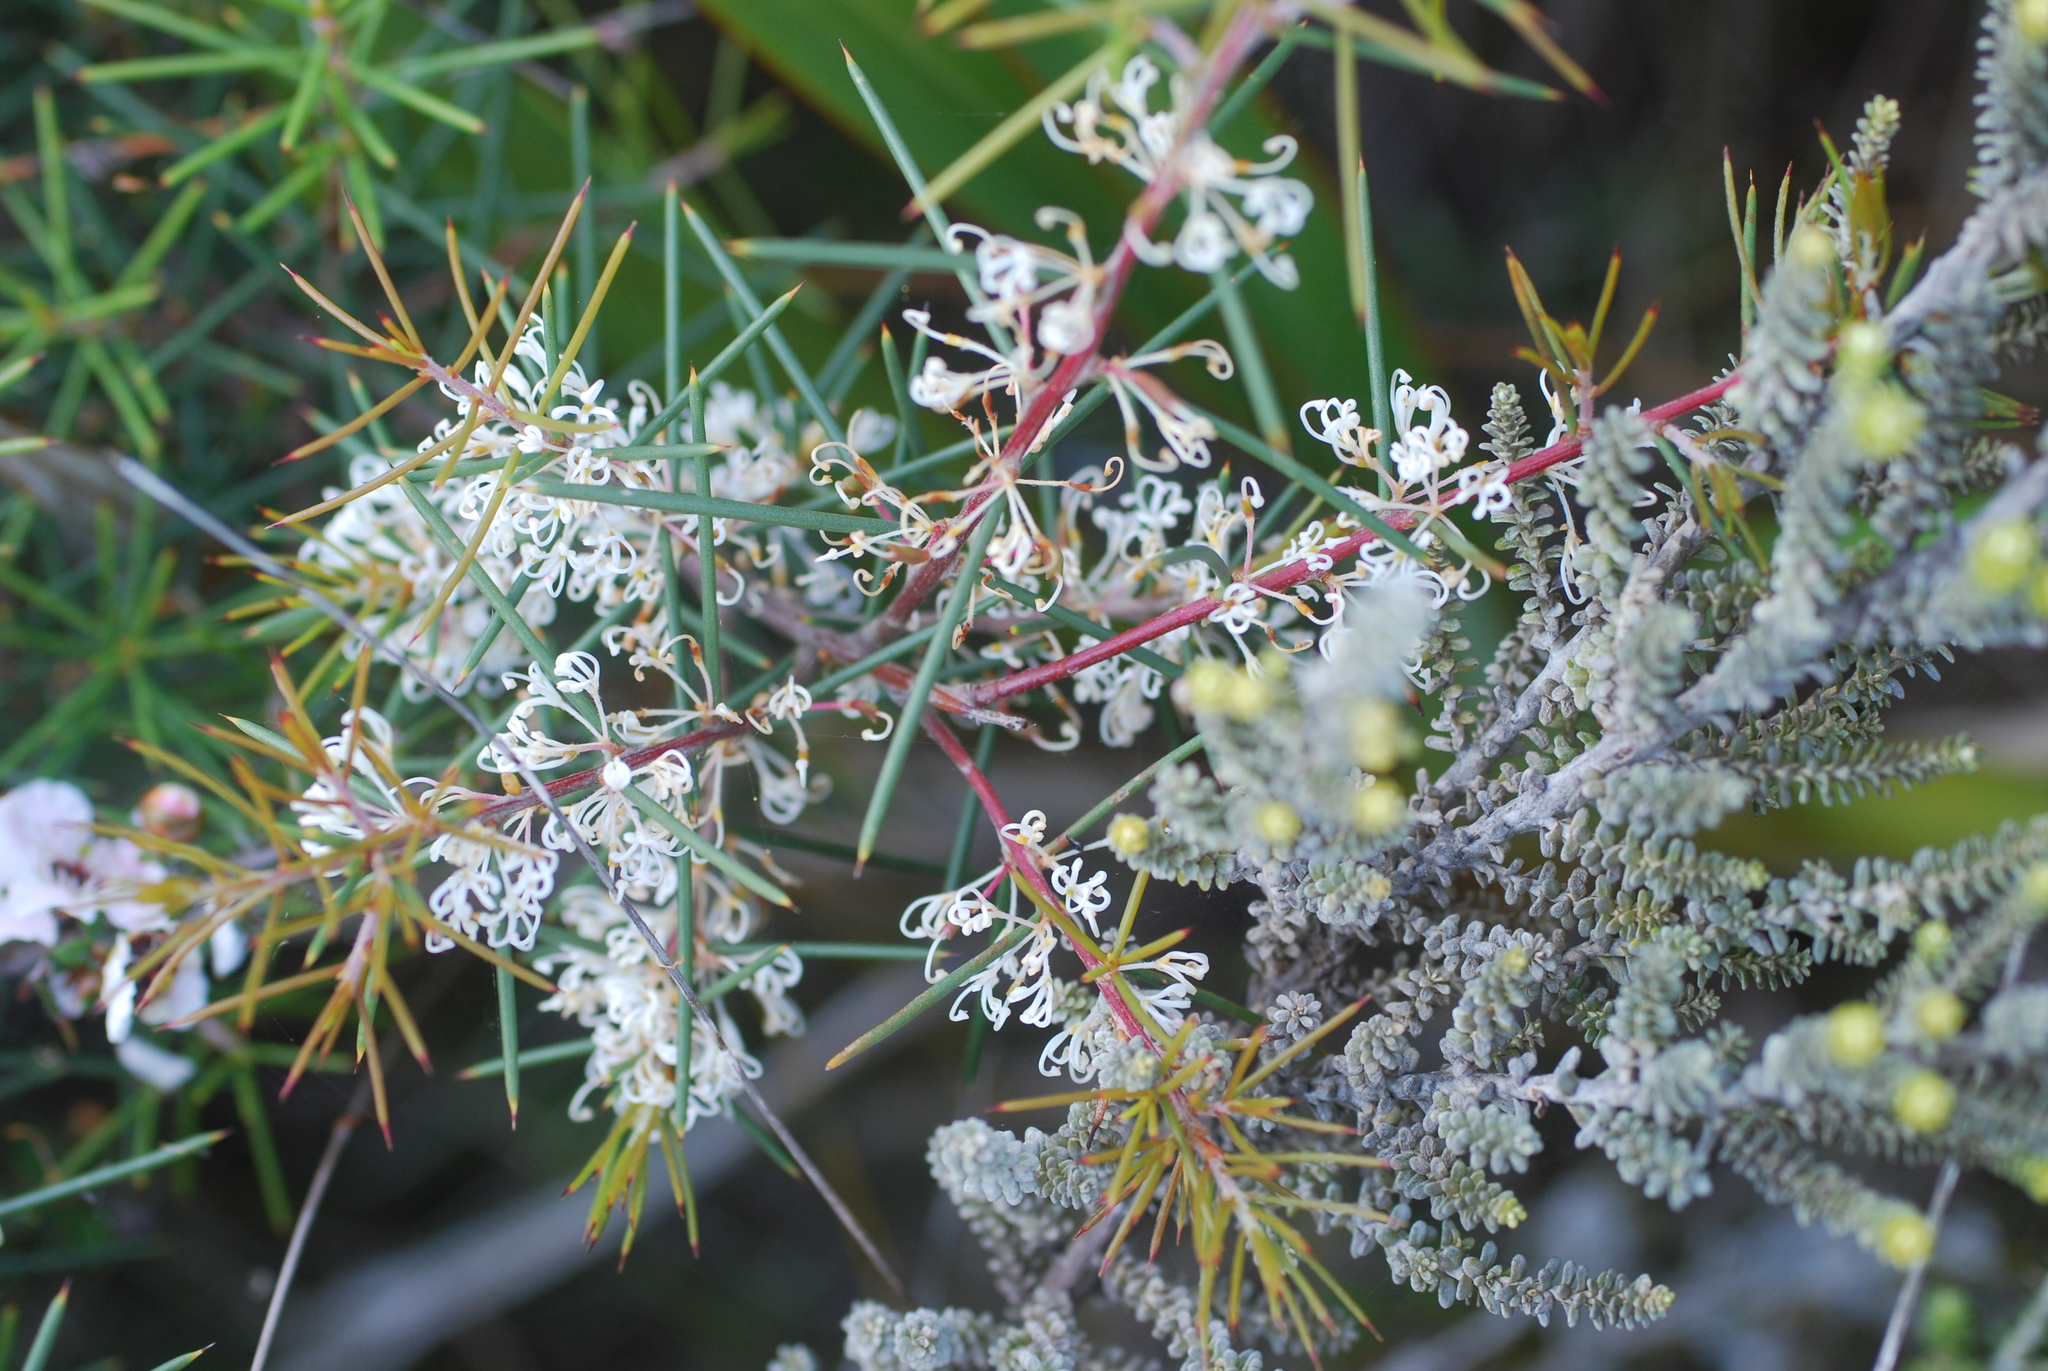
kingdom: Plantae
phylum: Tracheophyta
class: Magnoliopsida
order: Proteales
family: Proteaceae
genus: Hakea
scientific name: Hakea sericea
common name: Needle bush
